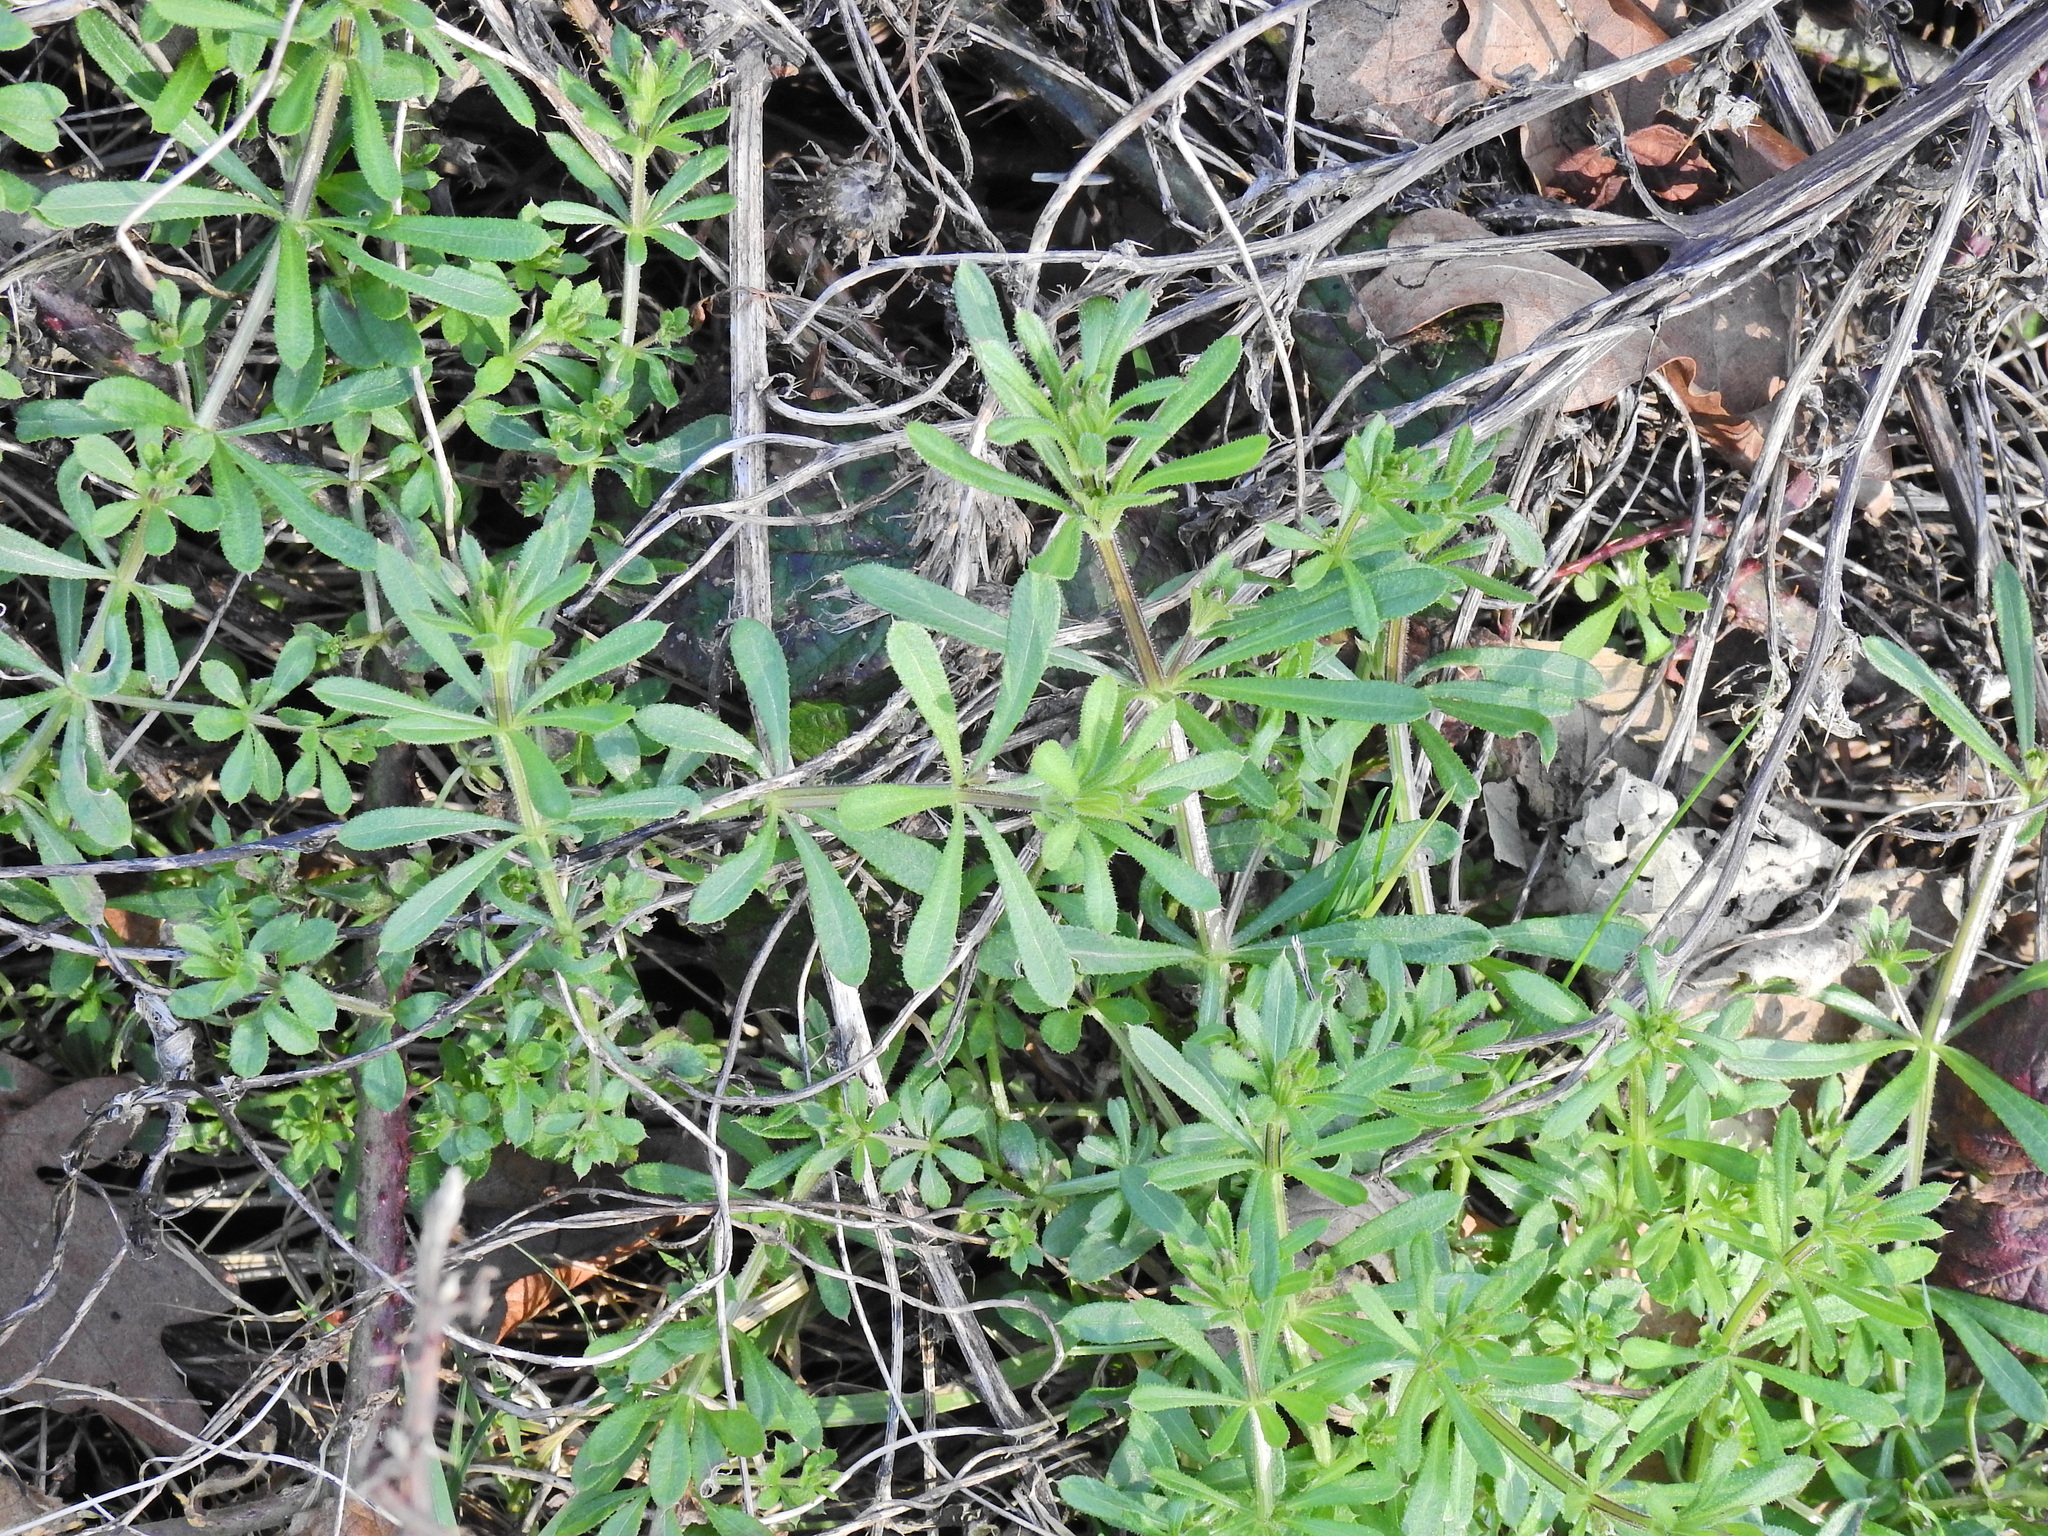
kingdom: Plantae
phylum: Tracheophyta
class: Magnoliopsida
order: Gentianales
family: Rubiaceae
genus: Galium
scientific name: Galium aparine
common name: Cleavers
